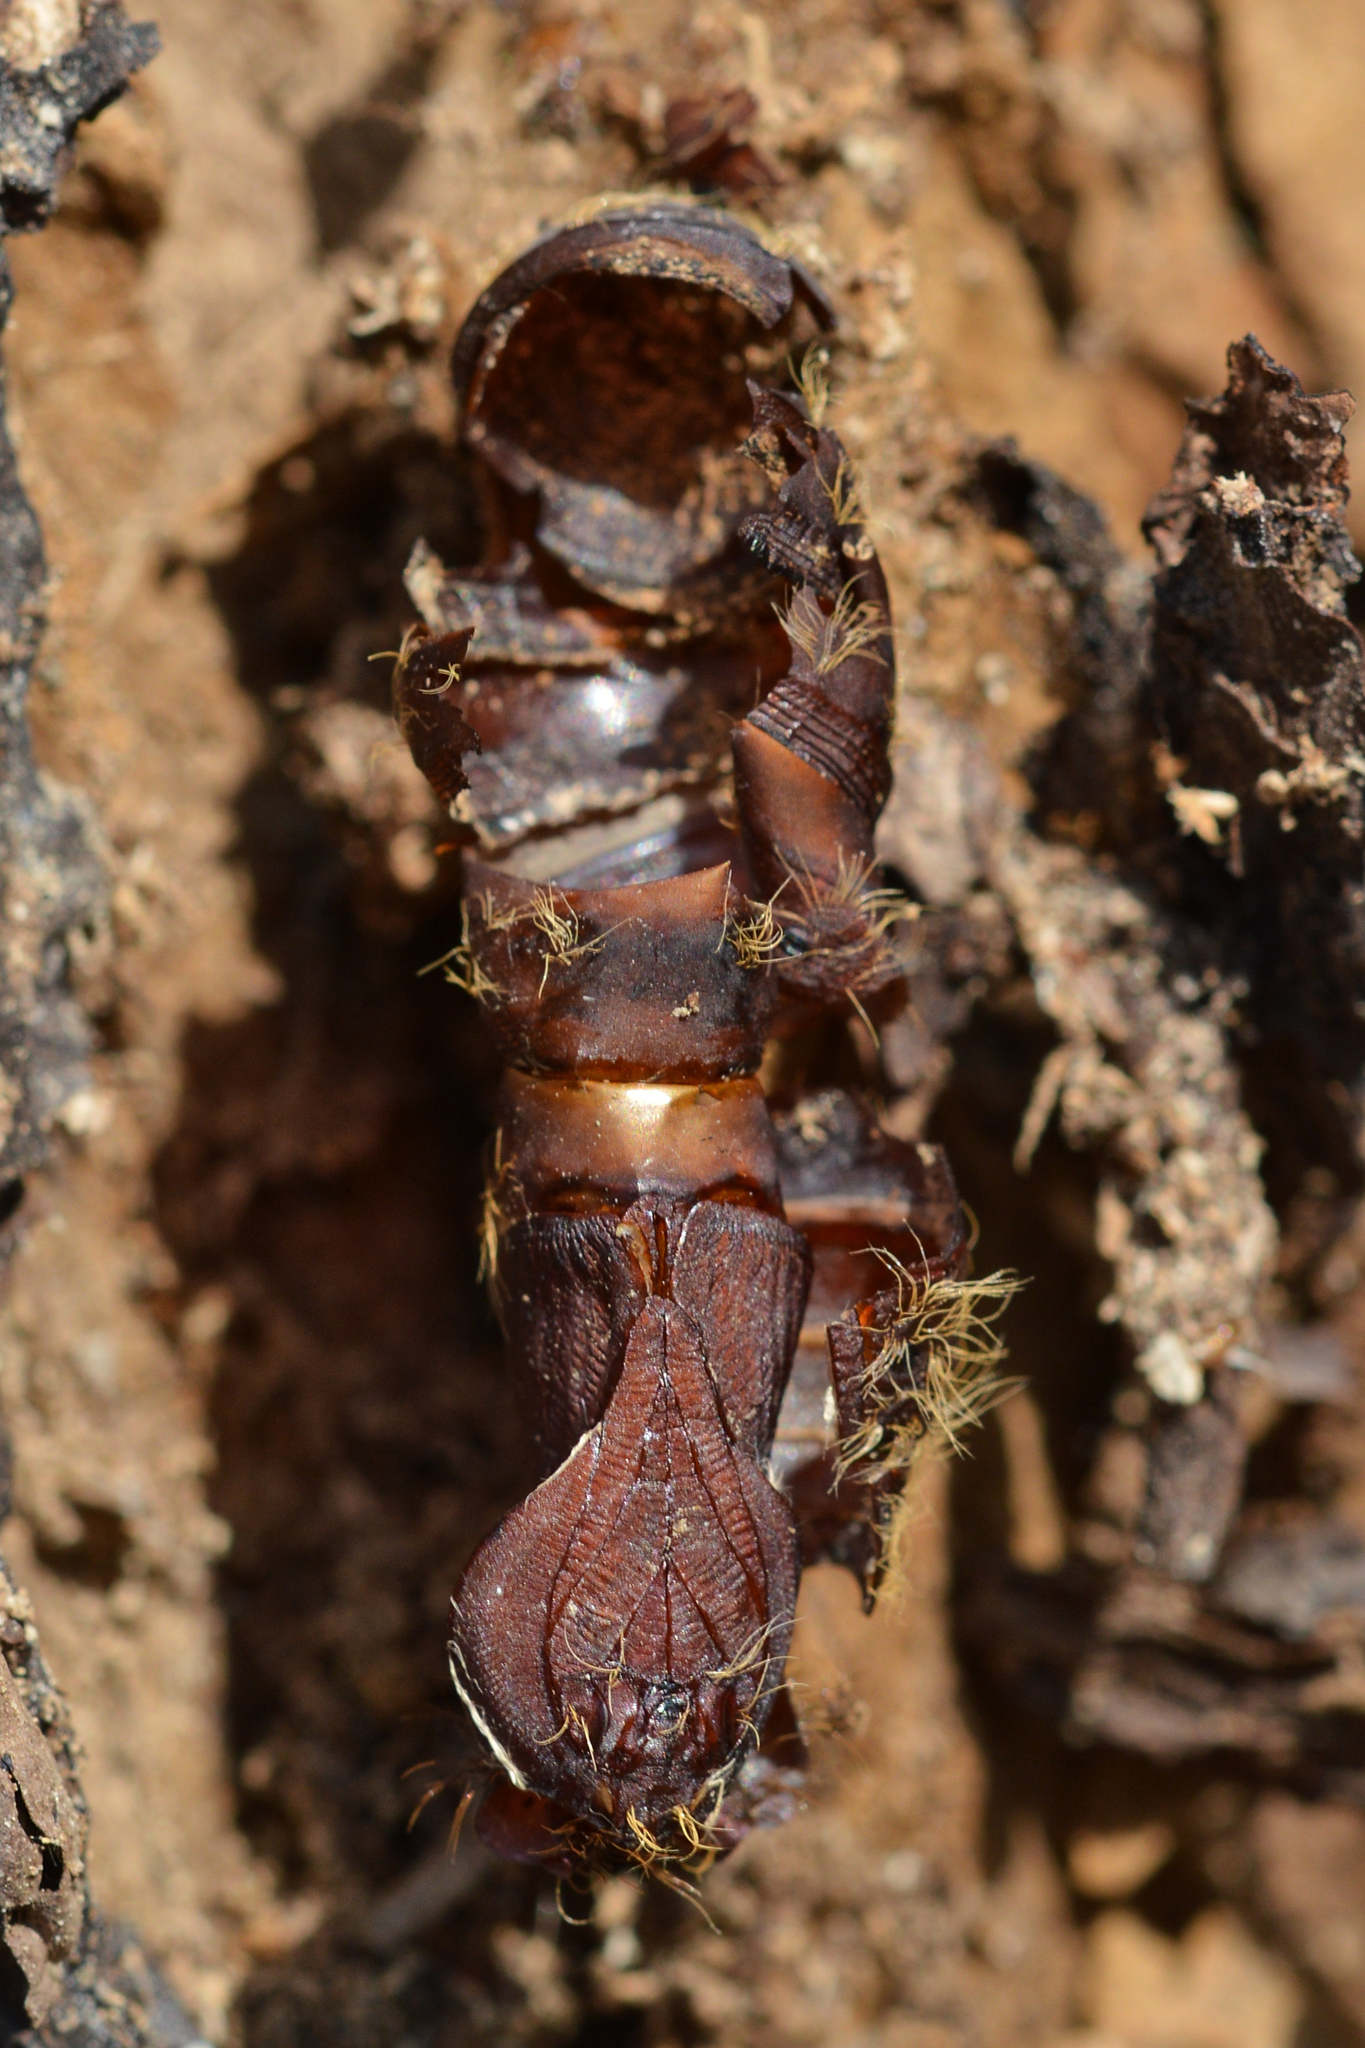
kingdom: Animalia
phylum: Arthropoda
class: Insecta
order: Lepidoptera
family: Erebidae
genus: Lymantria
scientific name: Lymantria dispar
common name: Gypsy moth
